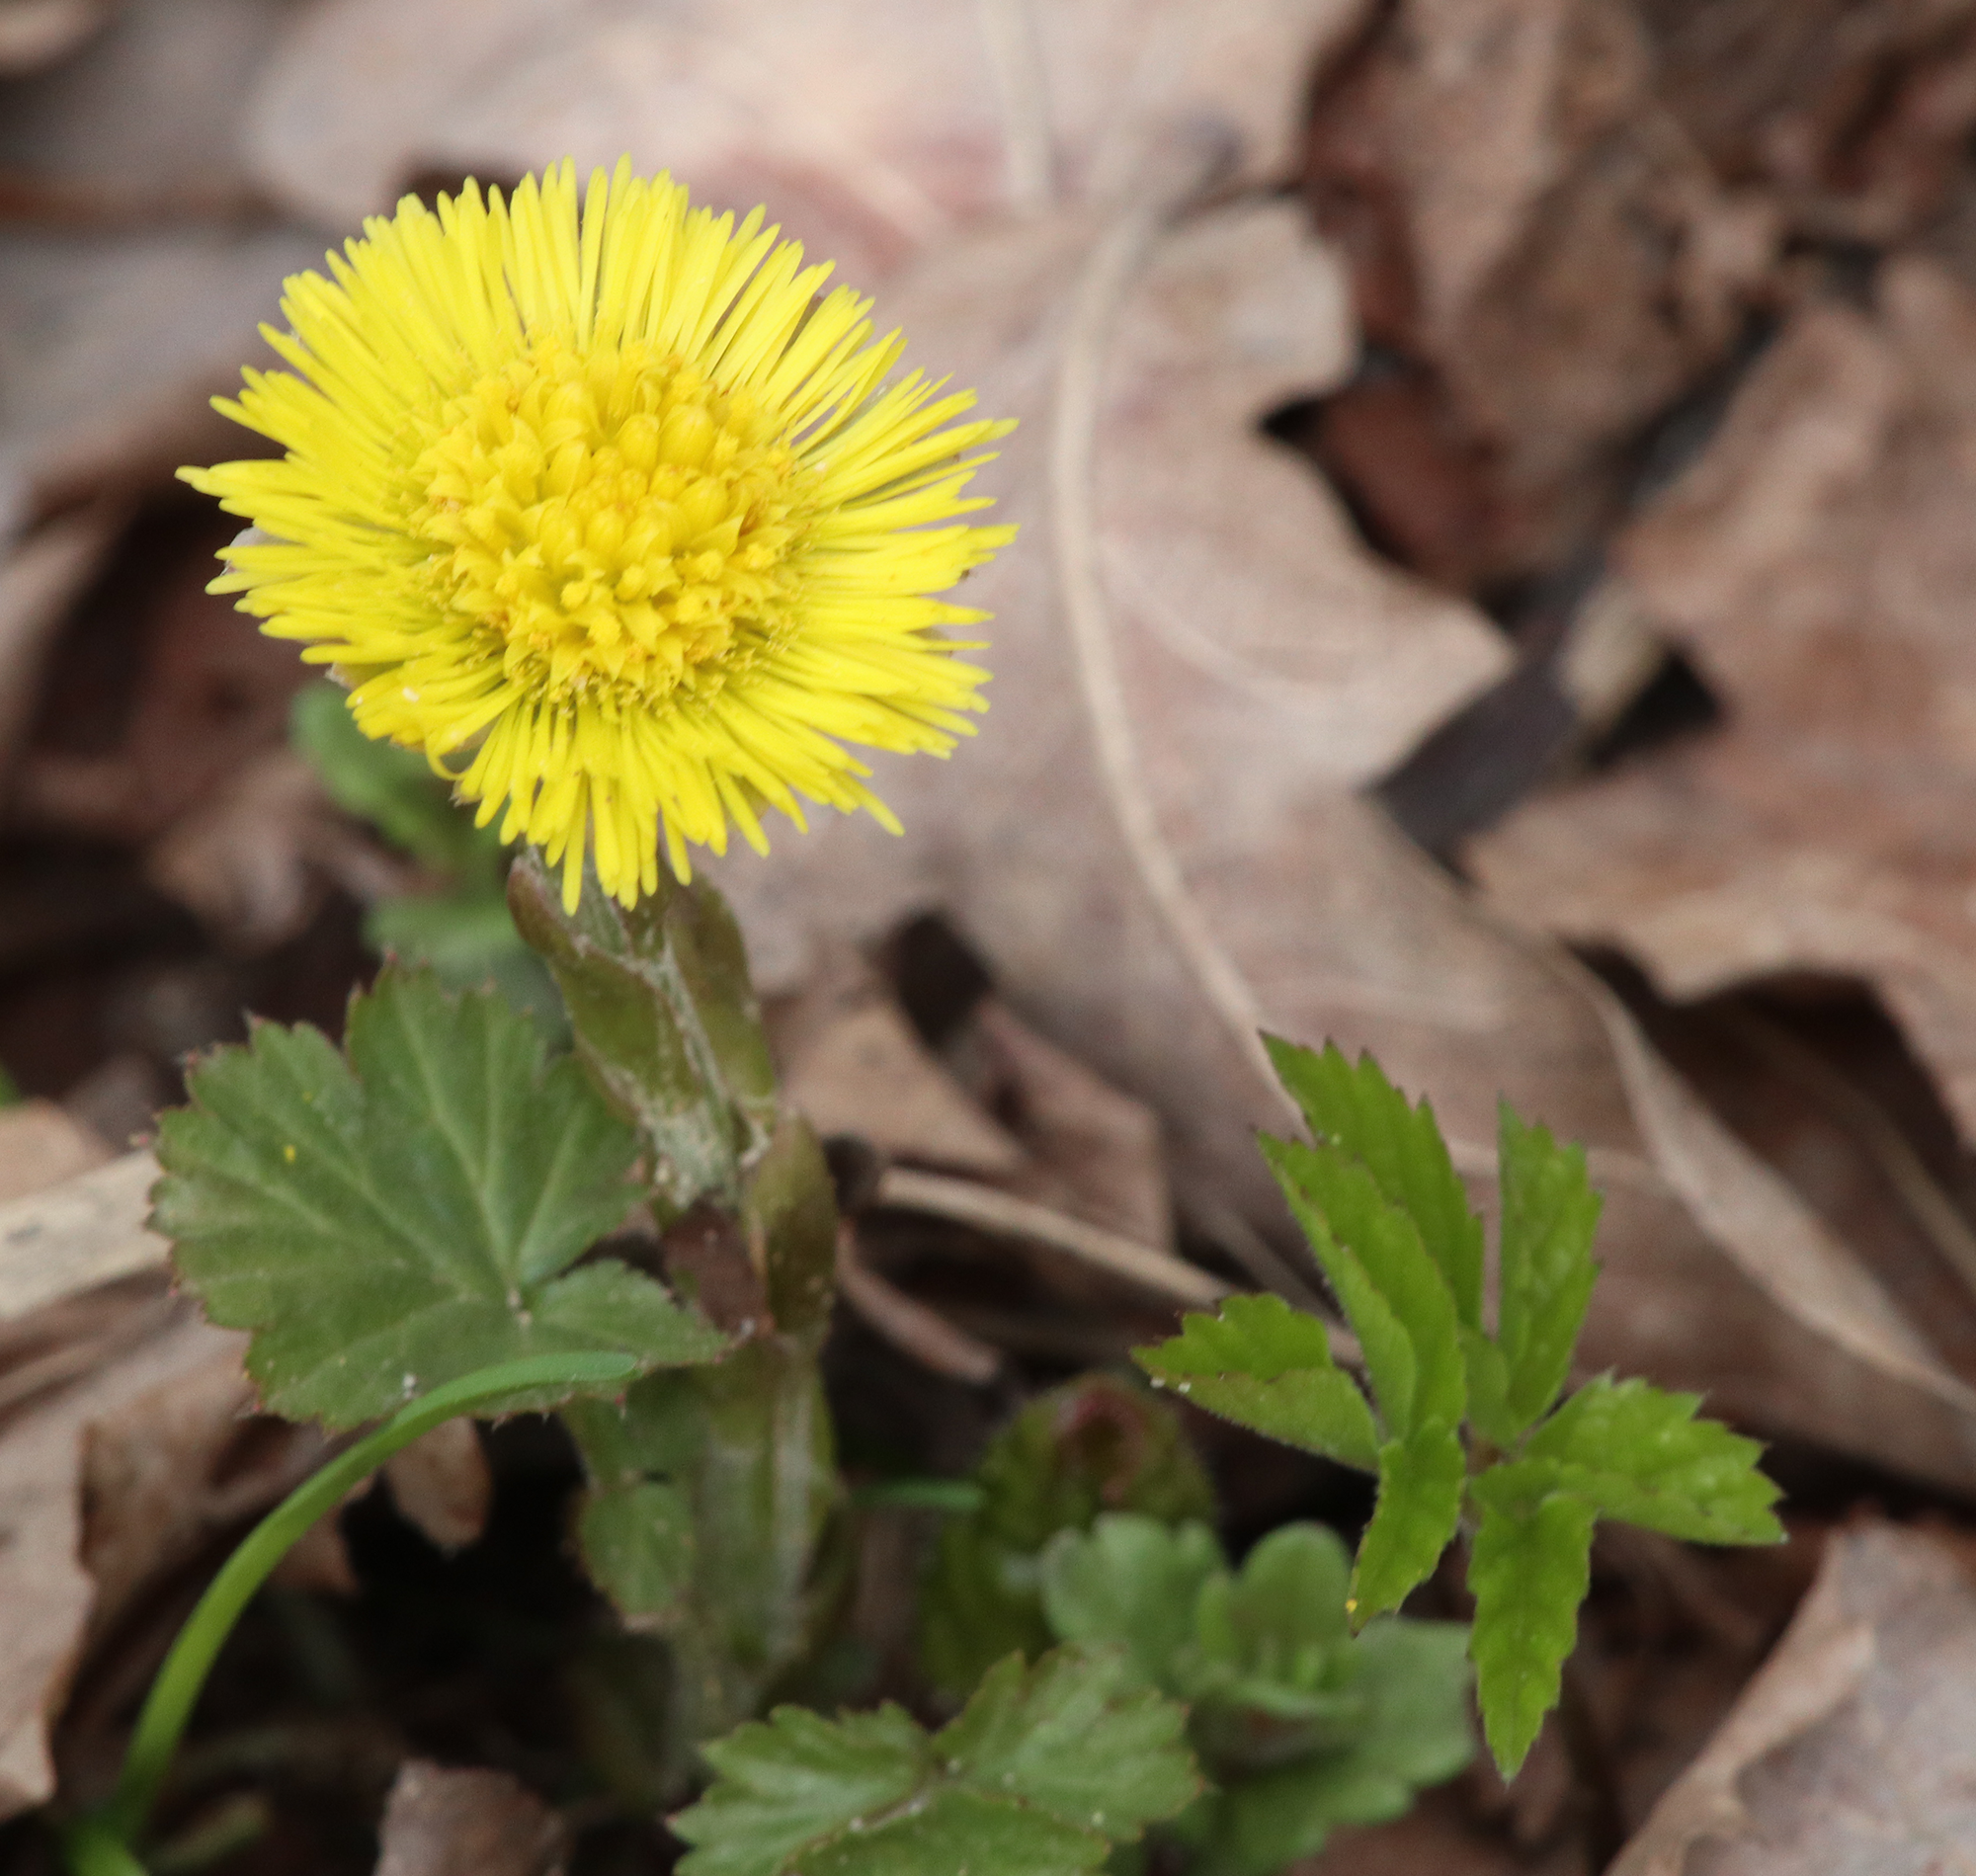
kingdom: Plantae
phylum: Tracheophyta
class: Magnoliopsida
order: Asterales
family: Asteraceae
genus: Tussilago
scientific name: Tussilago farfara
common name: Coltsfoot
